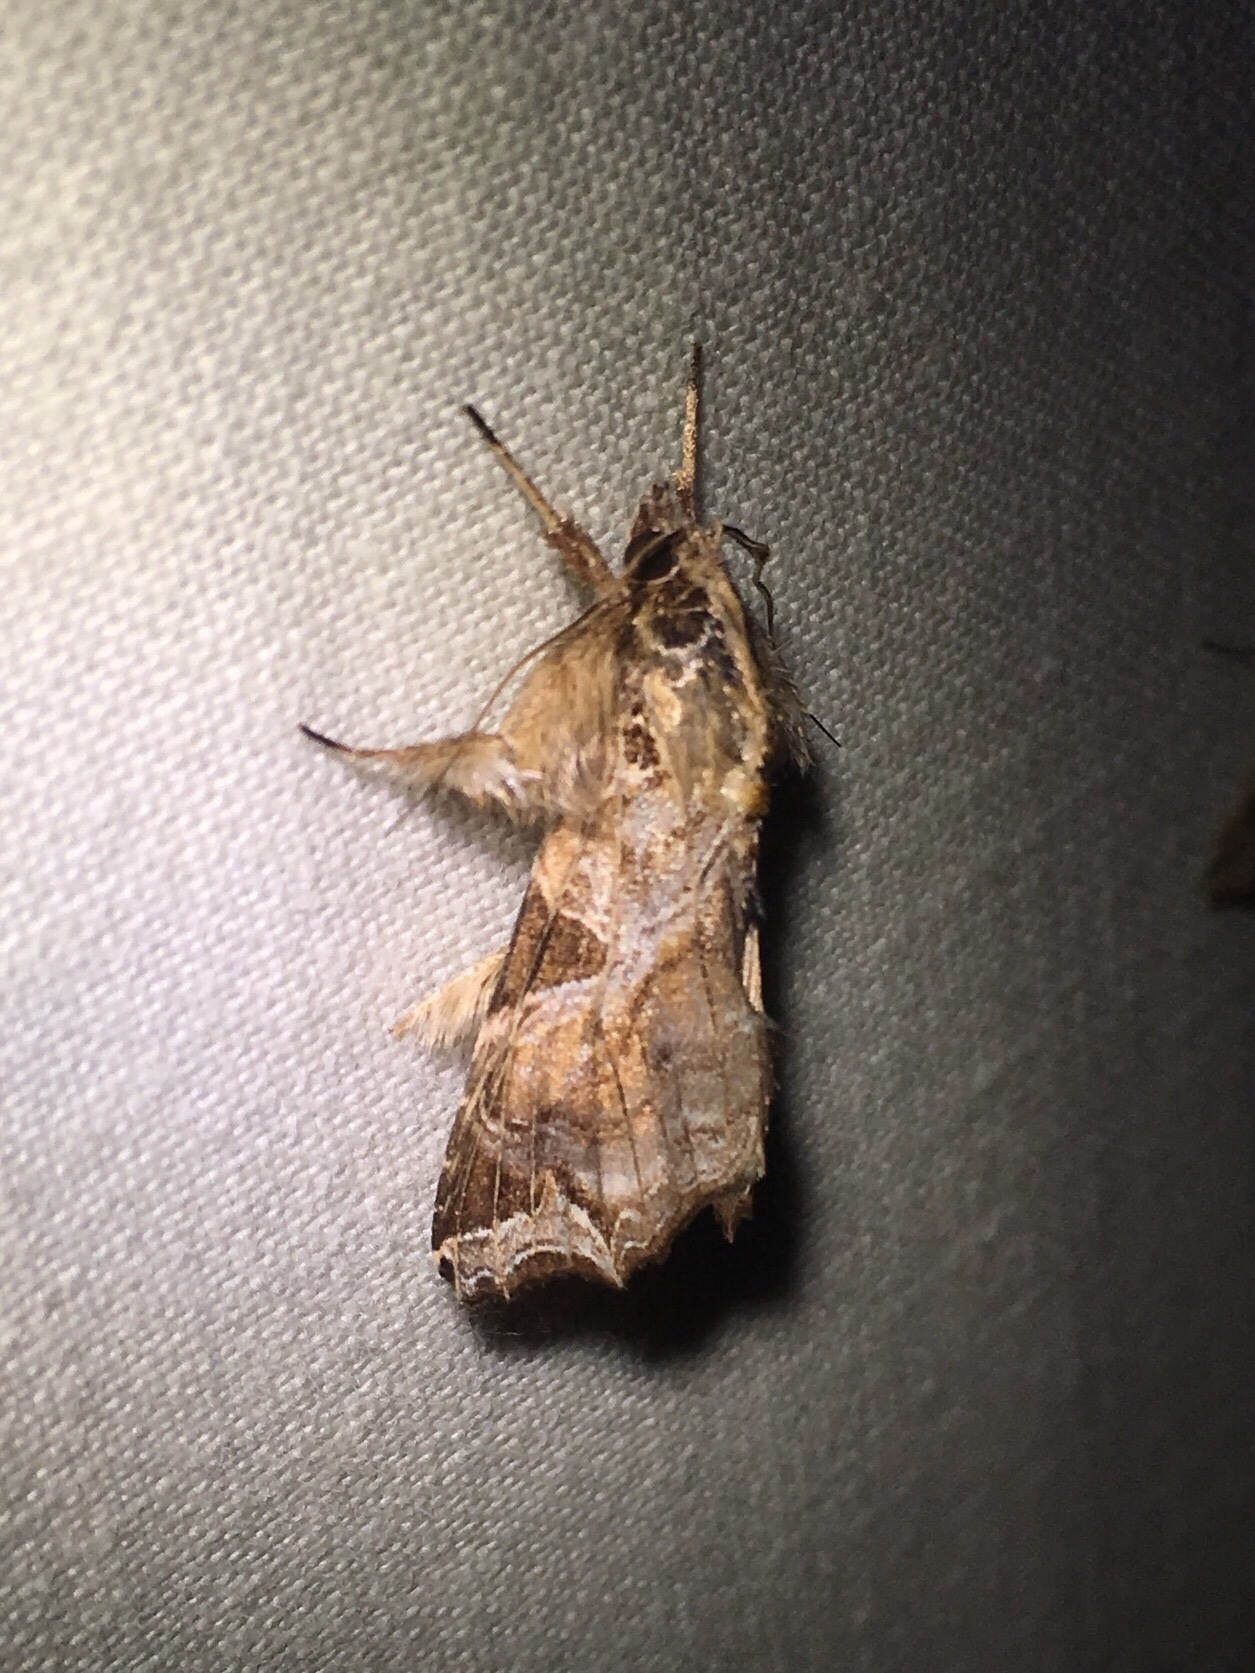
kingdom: Animalia
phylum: Arthropoda
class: Insecta
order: Lepidoptera
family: Noctuidae
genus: Callopistria
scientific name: Callopistria floridensis
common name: Florida fern moth
